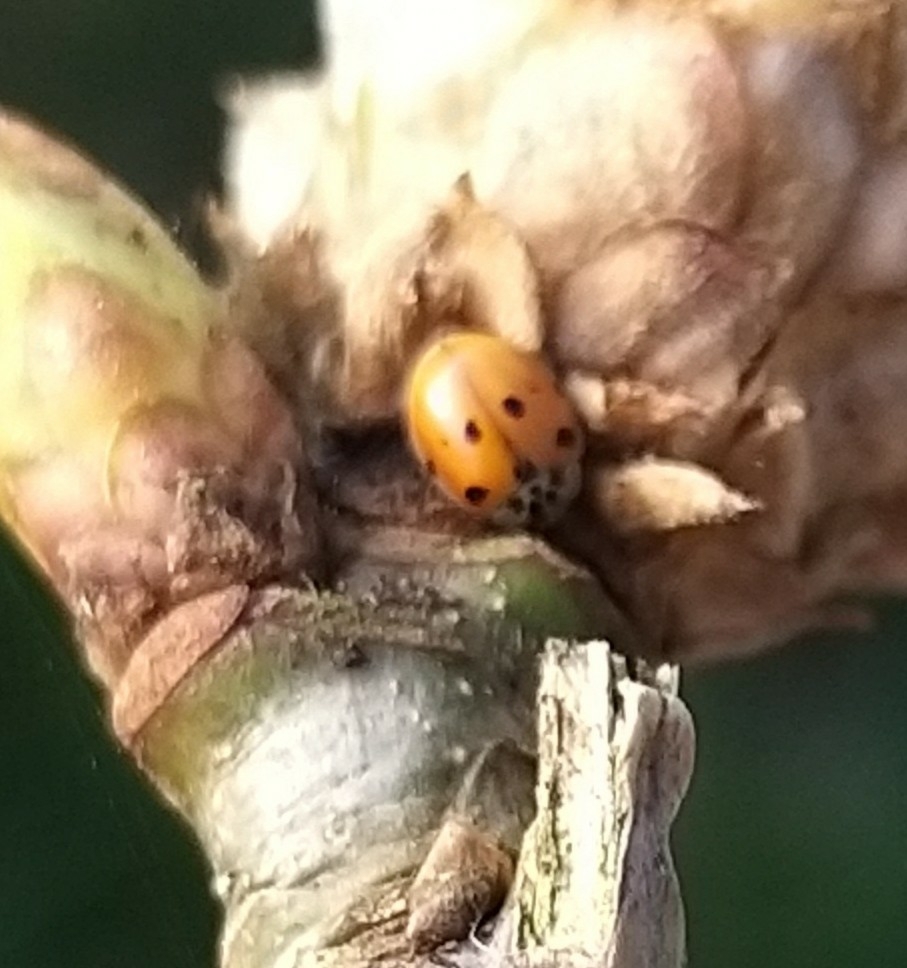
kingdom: Animalia
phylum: Arthropoda
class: Insecta
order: Coleoptera
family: Coccinellidae
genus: Adalia
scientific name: Adalia decempunctata
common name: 10-spot ladybird
